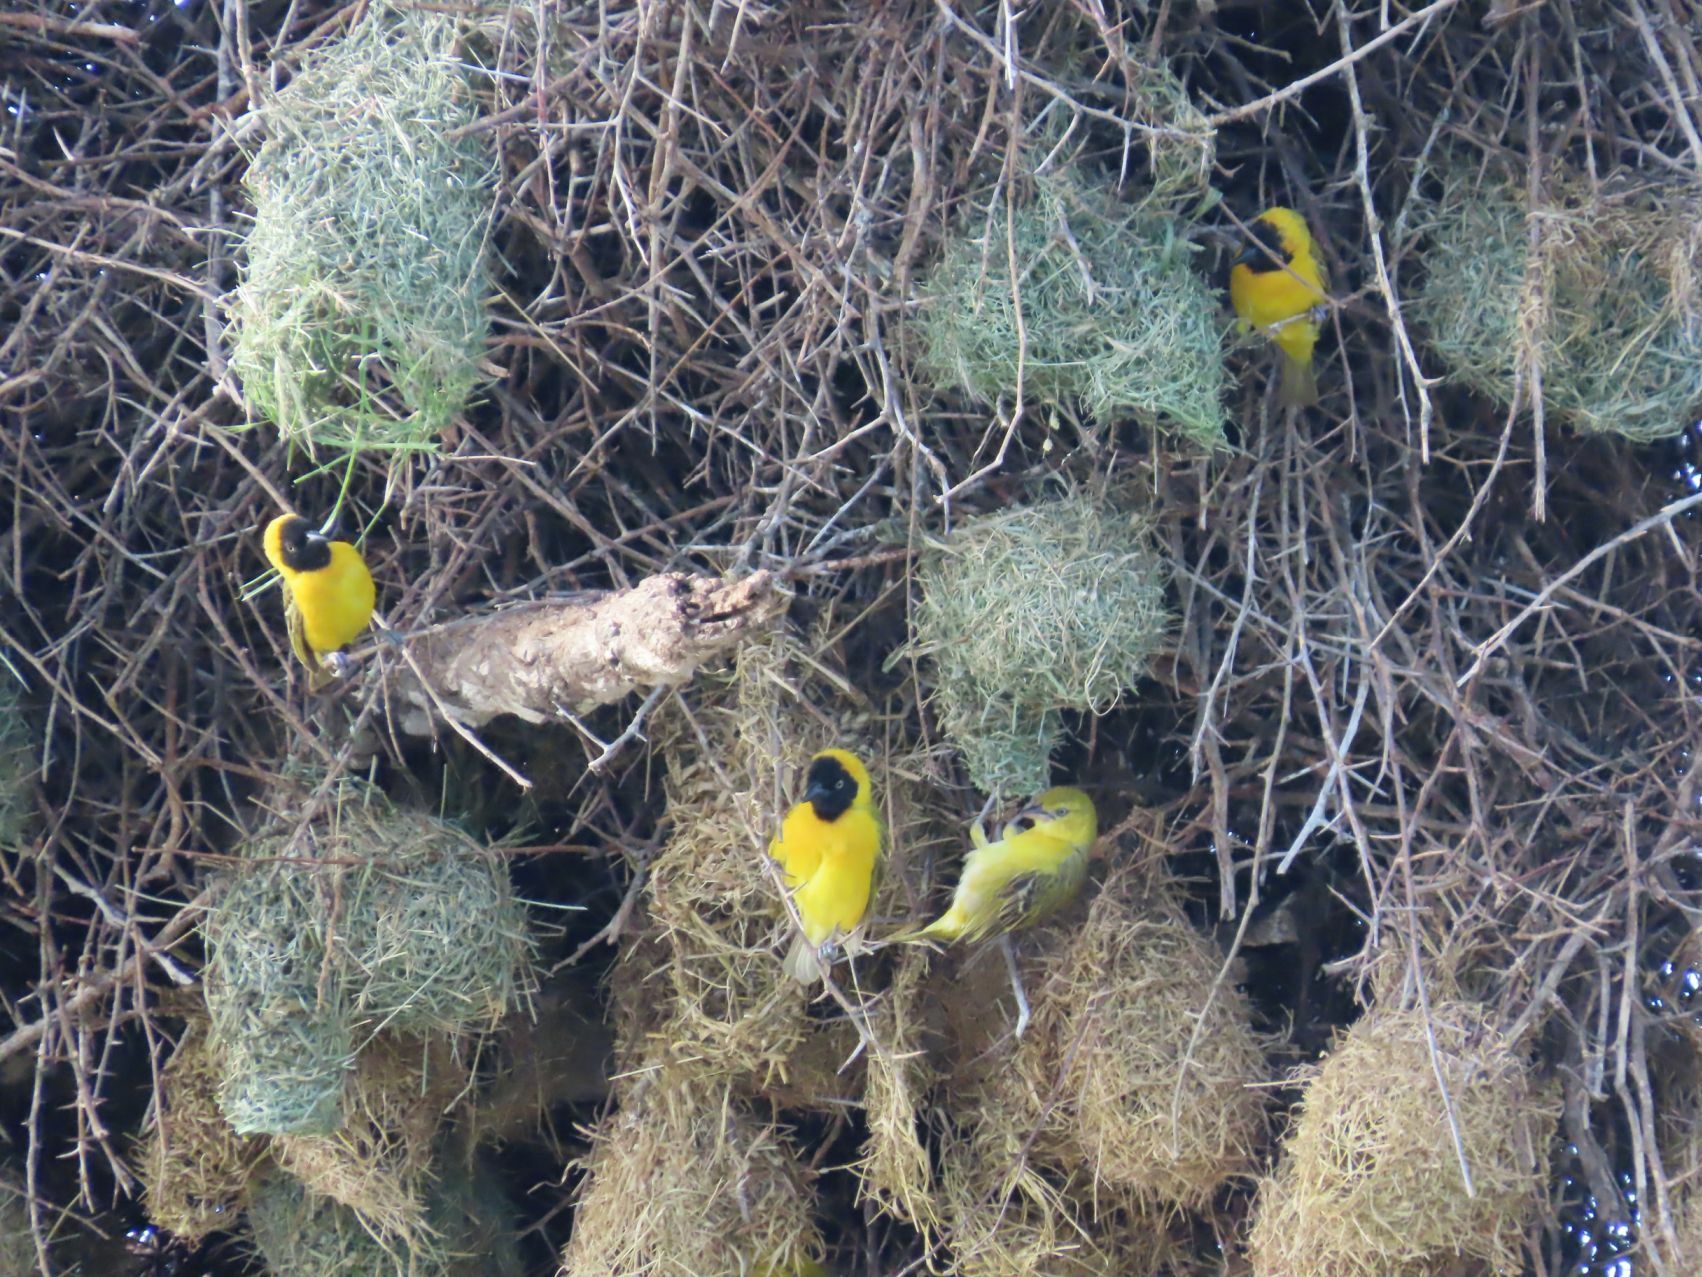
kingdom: Animalia
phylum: Chordata
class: Aves
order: Passeriformes
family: Ploceidae
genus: Ploceus
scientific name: Ploceus intermedius
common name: Lesser masked weaver
